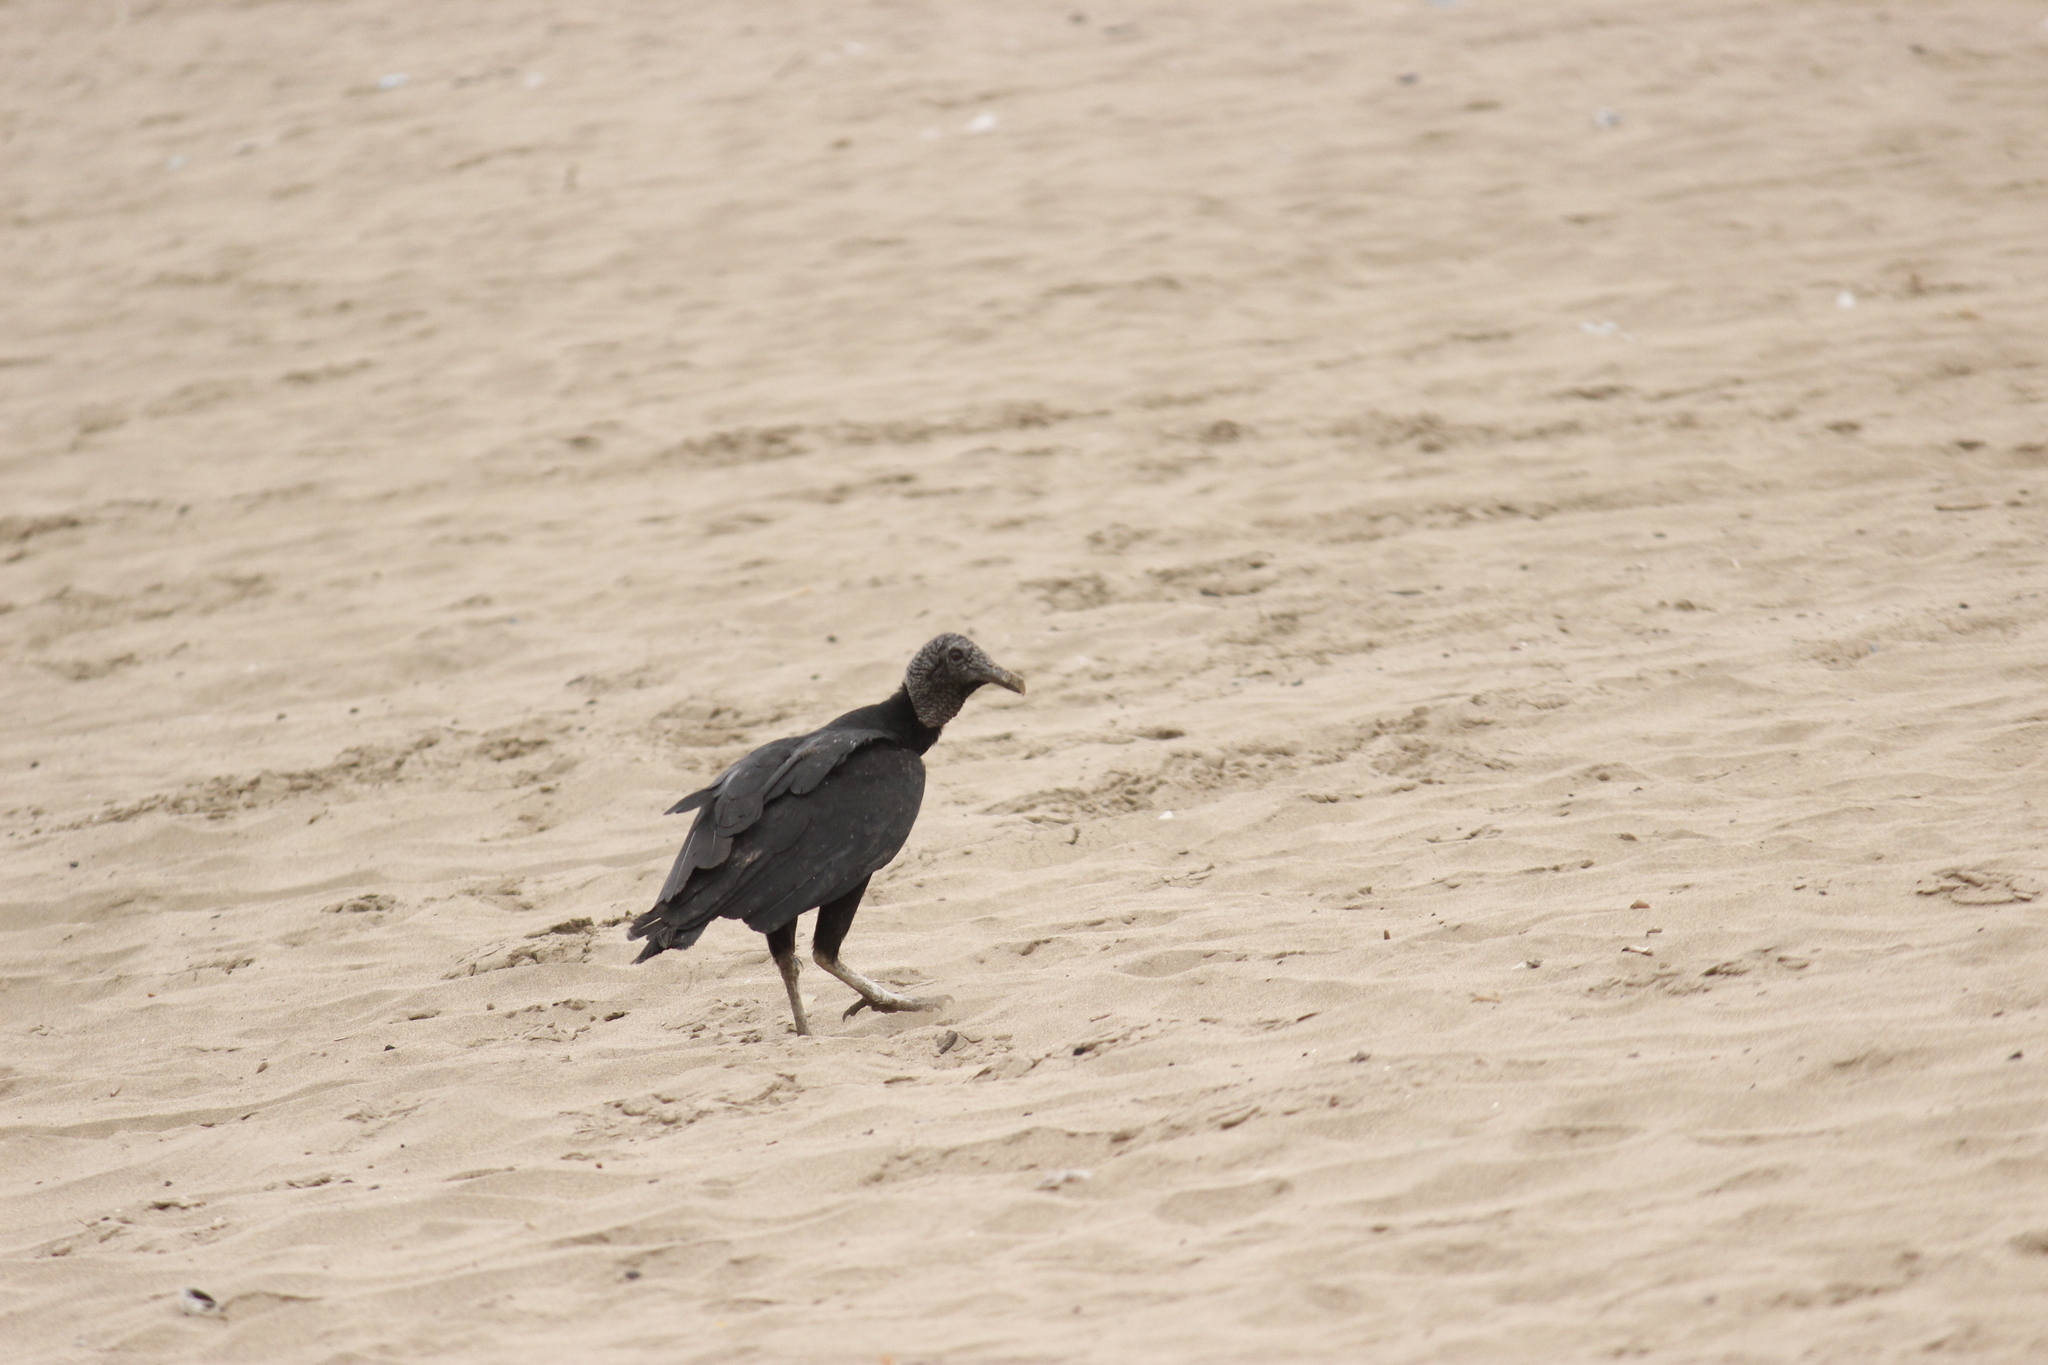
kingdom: Animalia
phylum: Chordata
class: Aves
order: Accipitriformes
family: Cathartidae
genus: Coragyps
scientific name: Coragyps atratus
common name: Black vulture
